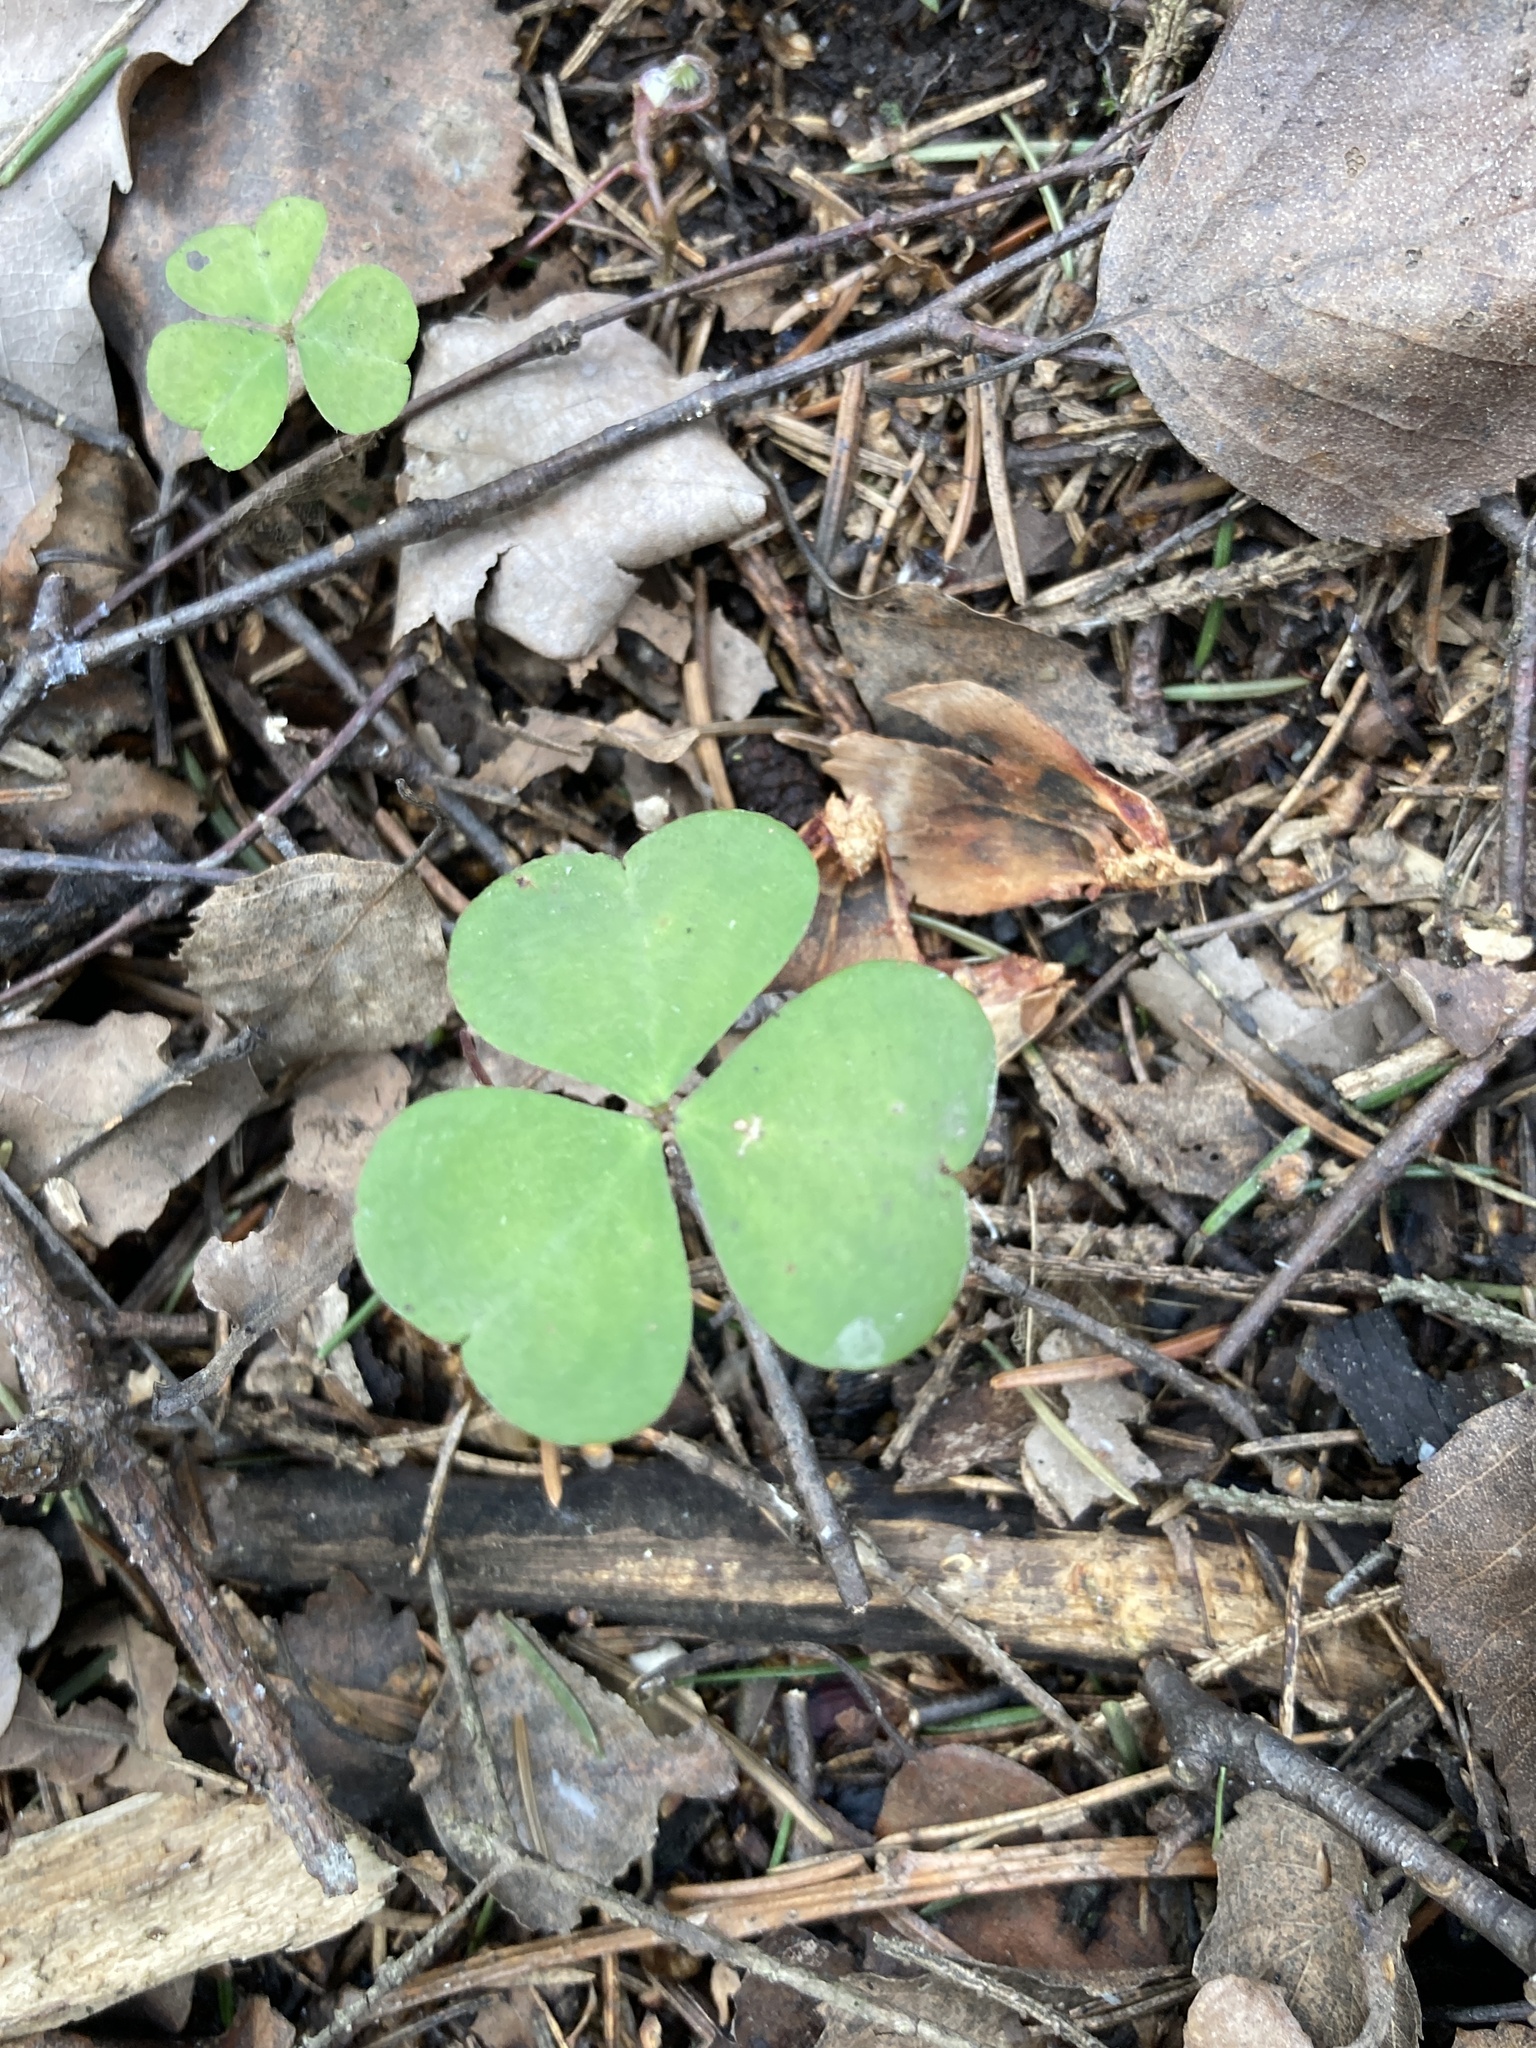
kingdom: Plantae
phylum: Tracheophyta
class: Magnoliopsida
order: Oxalidales
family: Oxalidaceae
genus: Oxalis
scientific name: Oxalis acetosella
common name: Wood-sorrel
